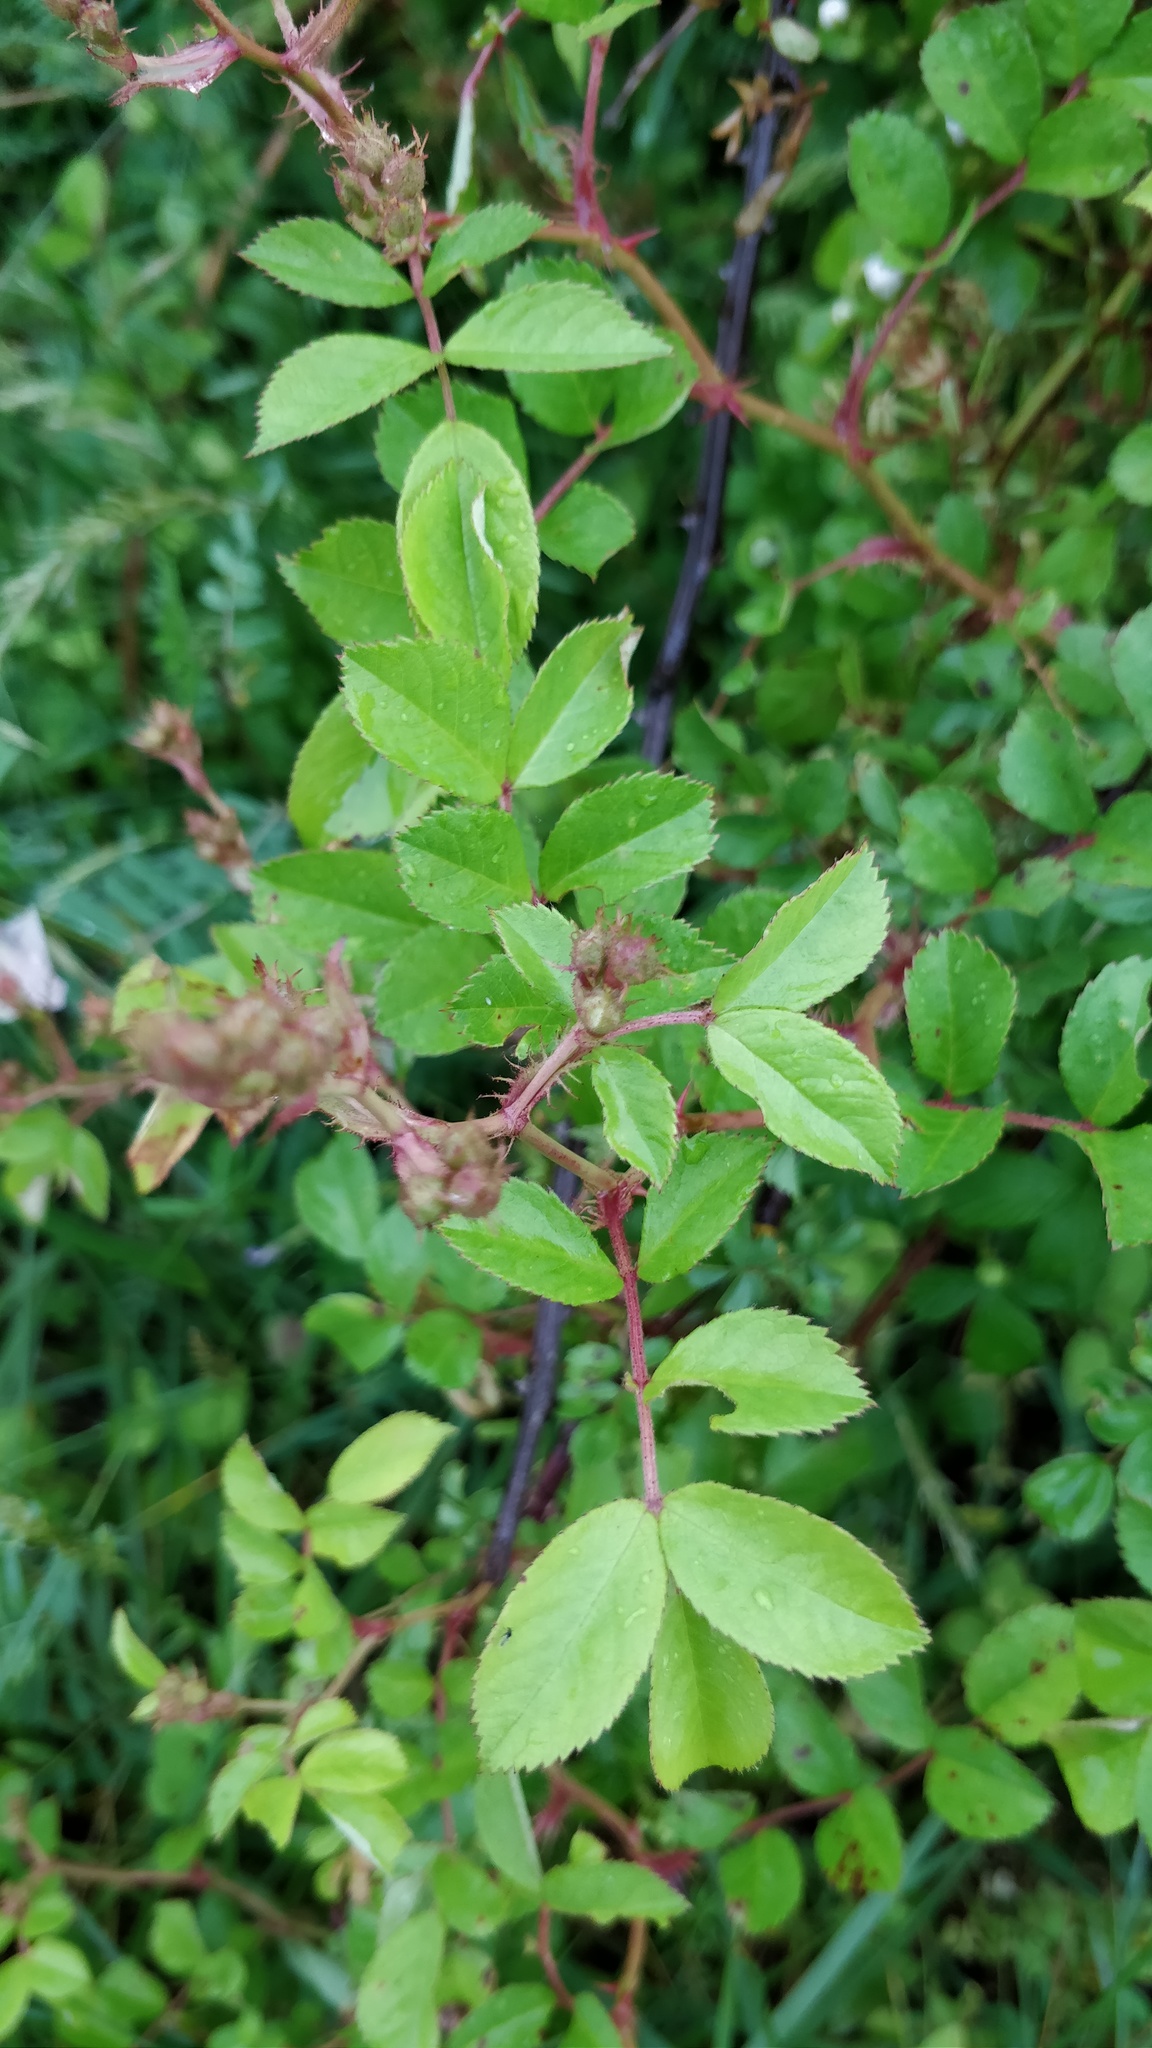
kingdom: Plantae
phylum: Tracheophyta
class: Magnoliopsida
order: Rosales
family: Rosaceae
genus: Rosa
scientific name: Rosa multiflora
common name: Multiflora rose
